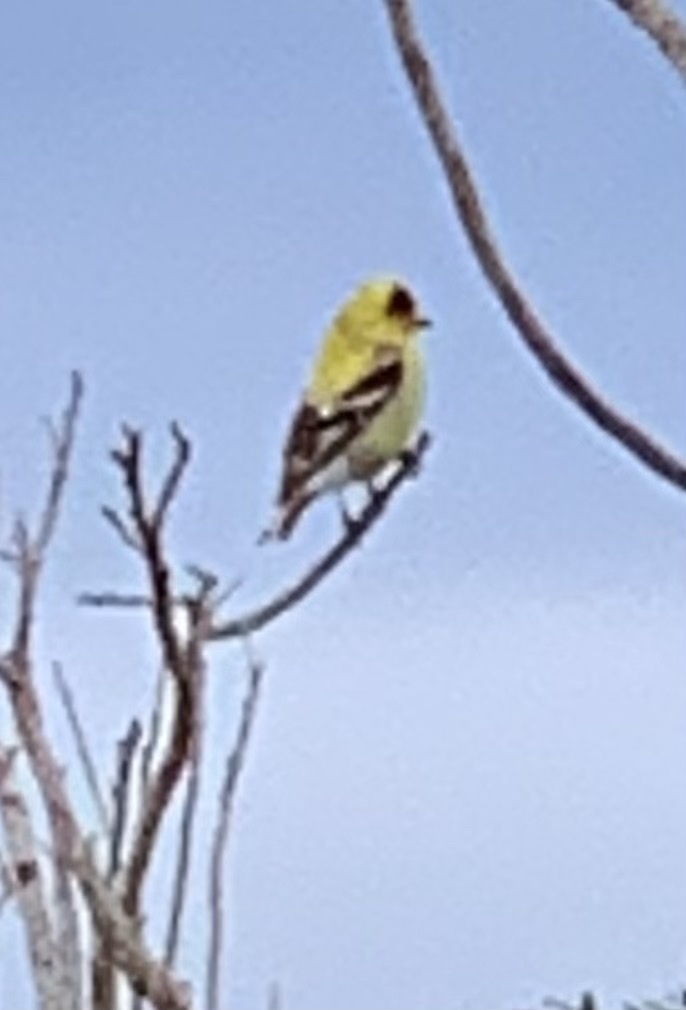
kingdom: Animalia
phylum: Chordata
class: Aves
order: Passeriformes
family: Fringillidae
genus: Spinus
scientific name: Spinus tristis
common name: American goldfinch
